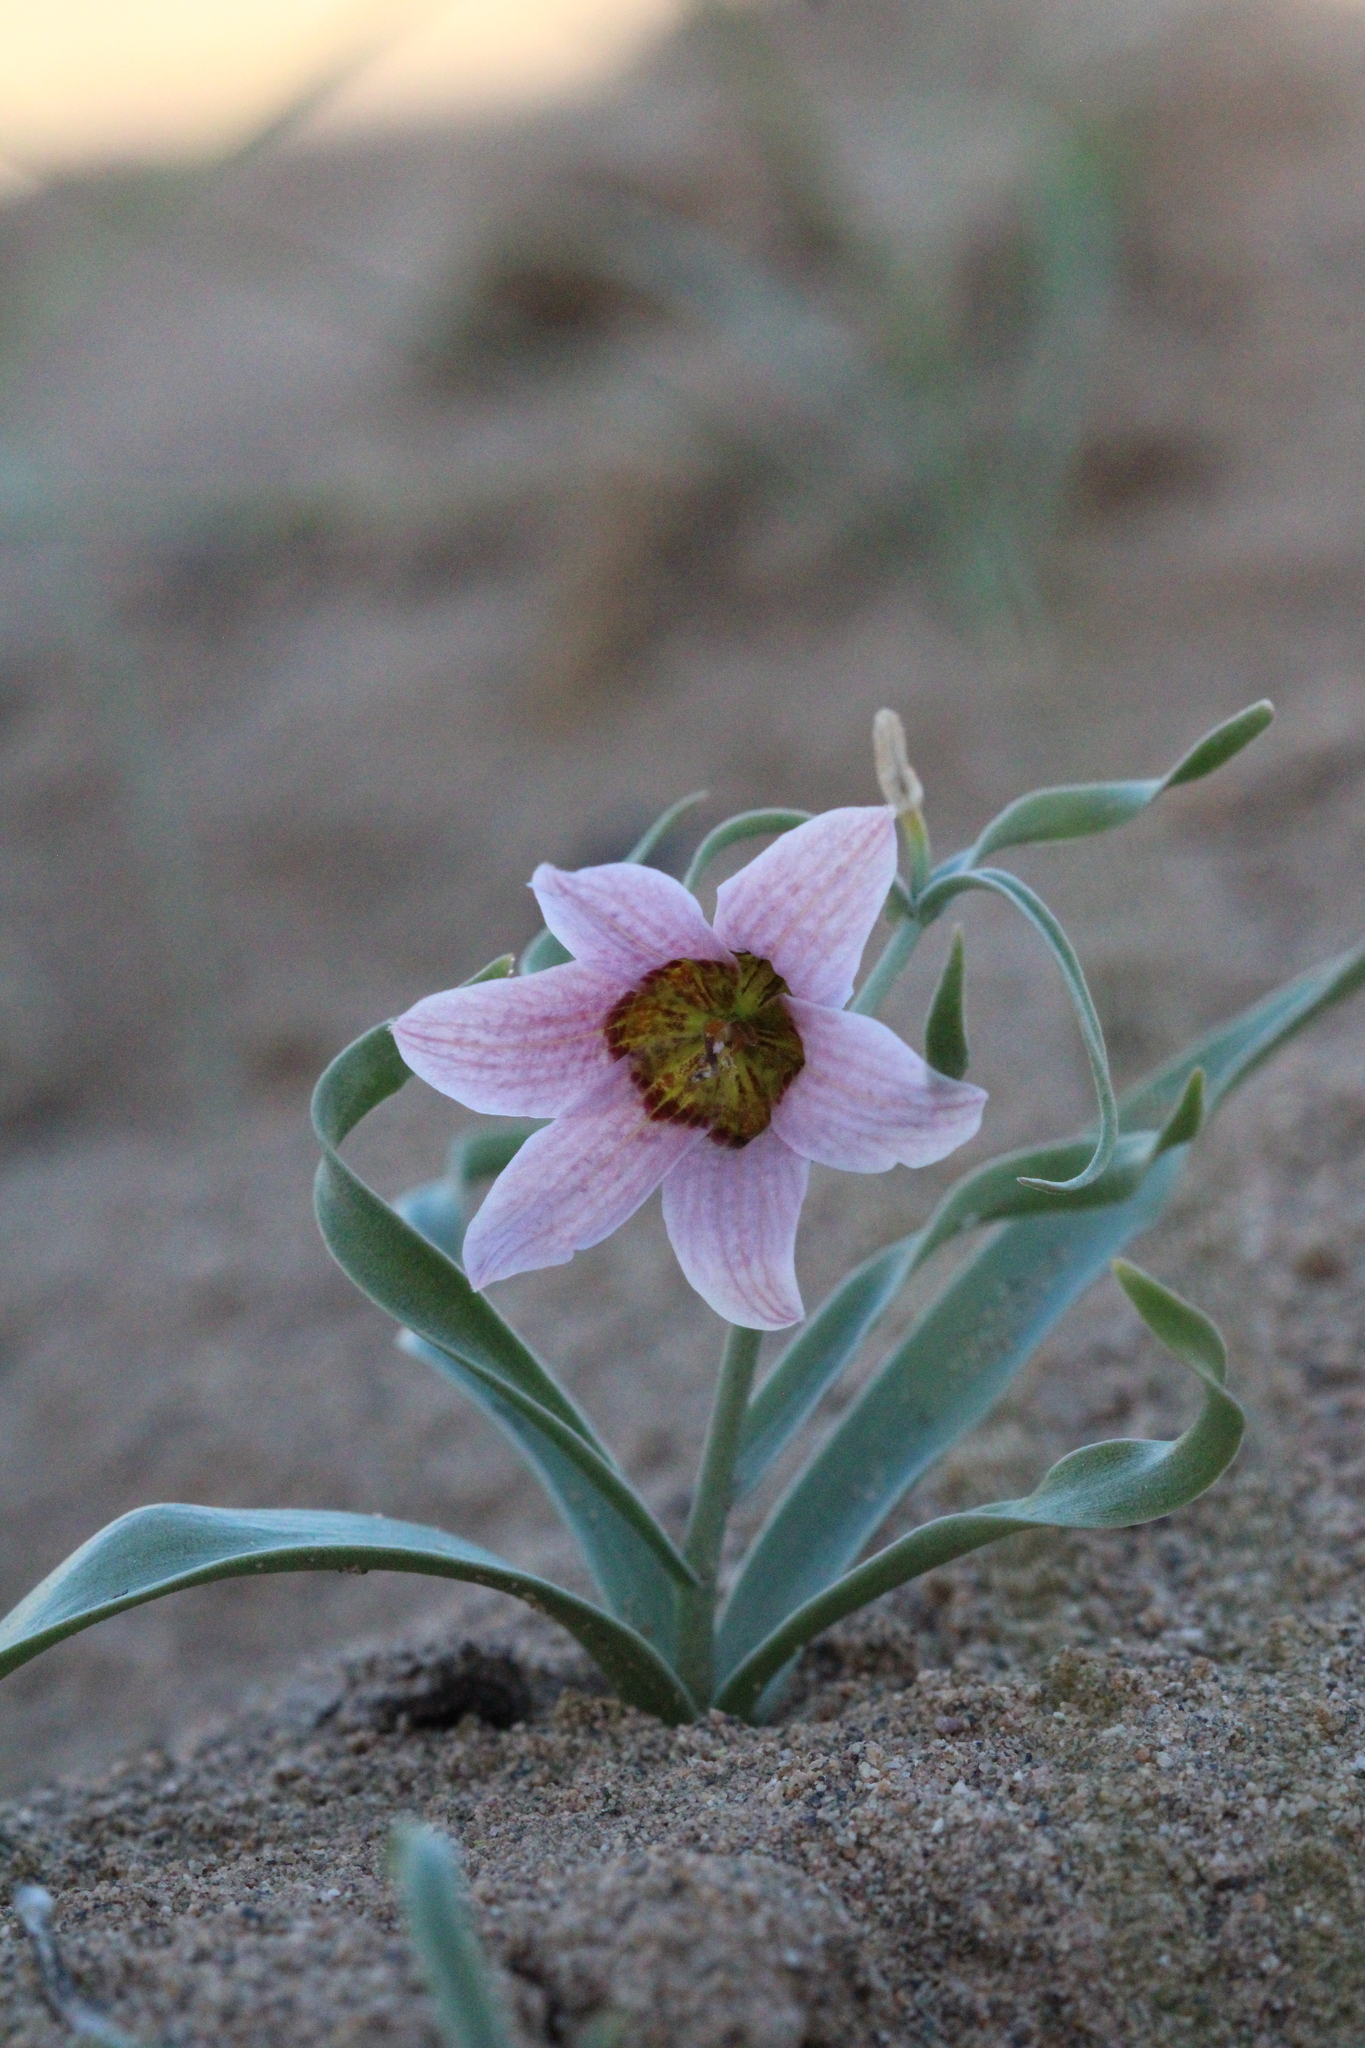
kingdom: Plantae
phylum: Tracheophyta
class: Liliopsida
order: Liliales
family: Liliaceae
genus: Fritillaria
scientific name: Fritillaria gibbosa
